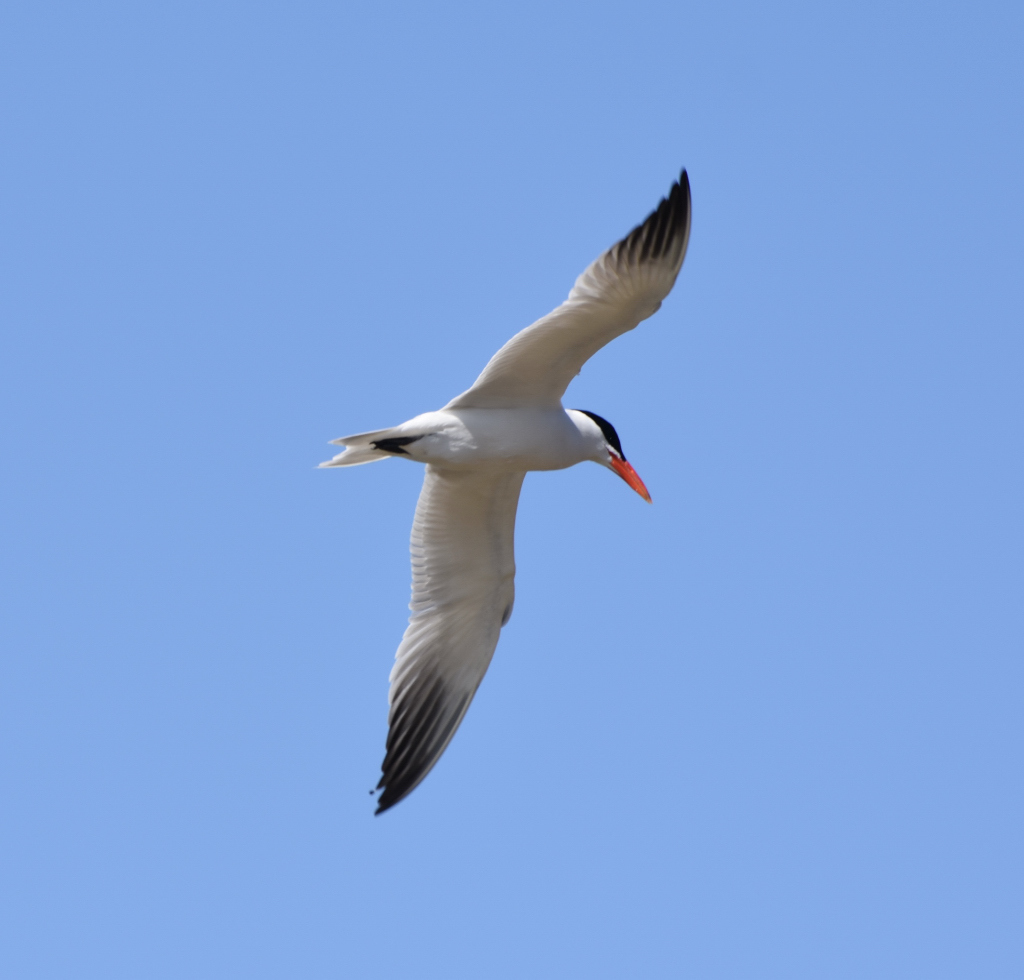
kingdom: Animalia
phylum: Chordata
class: Aves
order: Charadriiformes
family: Laridae
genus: Hydroprogne
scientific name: Hydroprogne caspia
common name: Caspian tern
